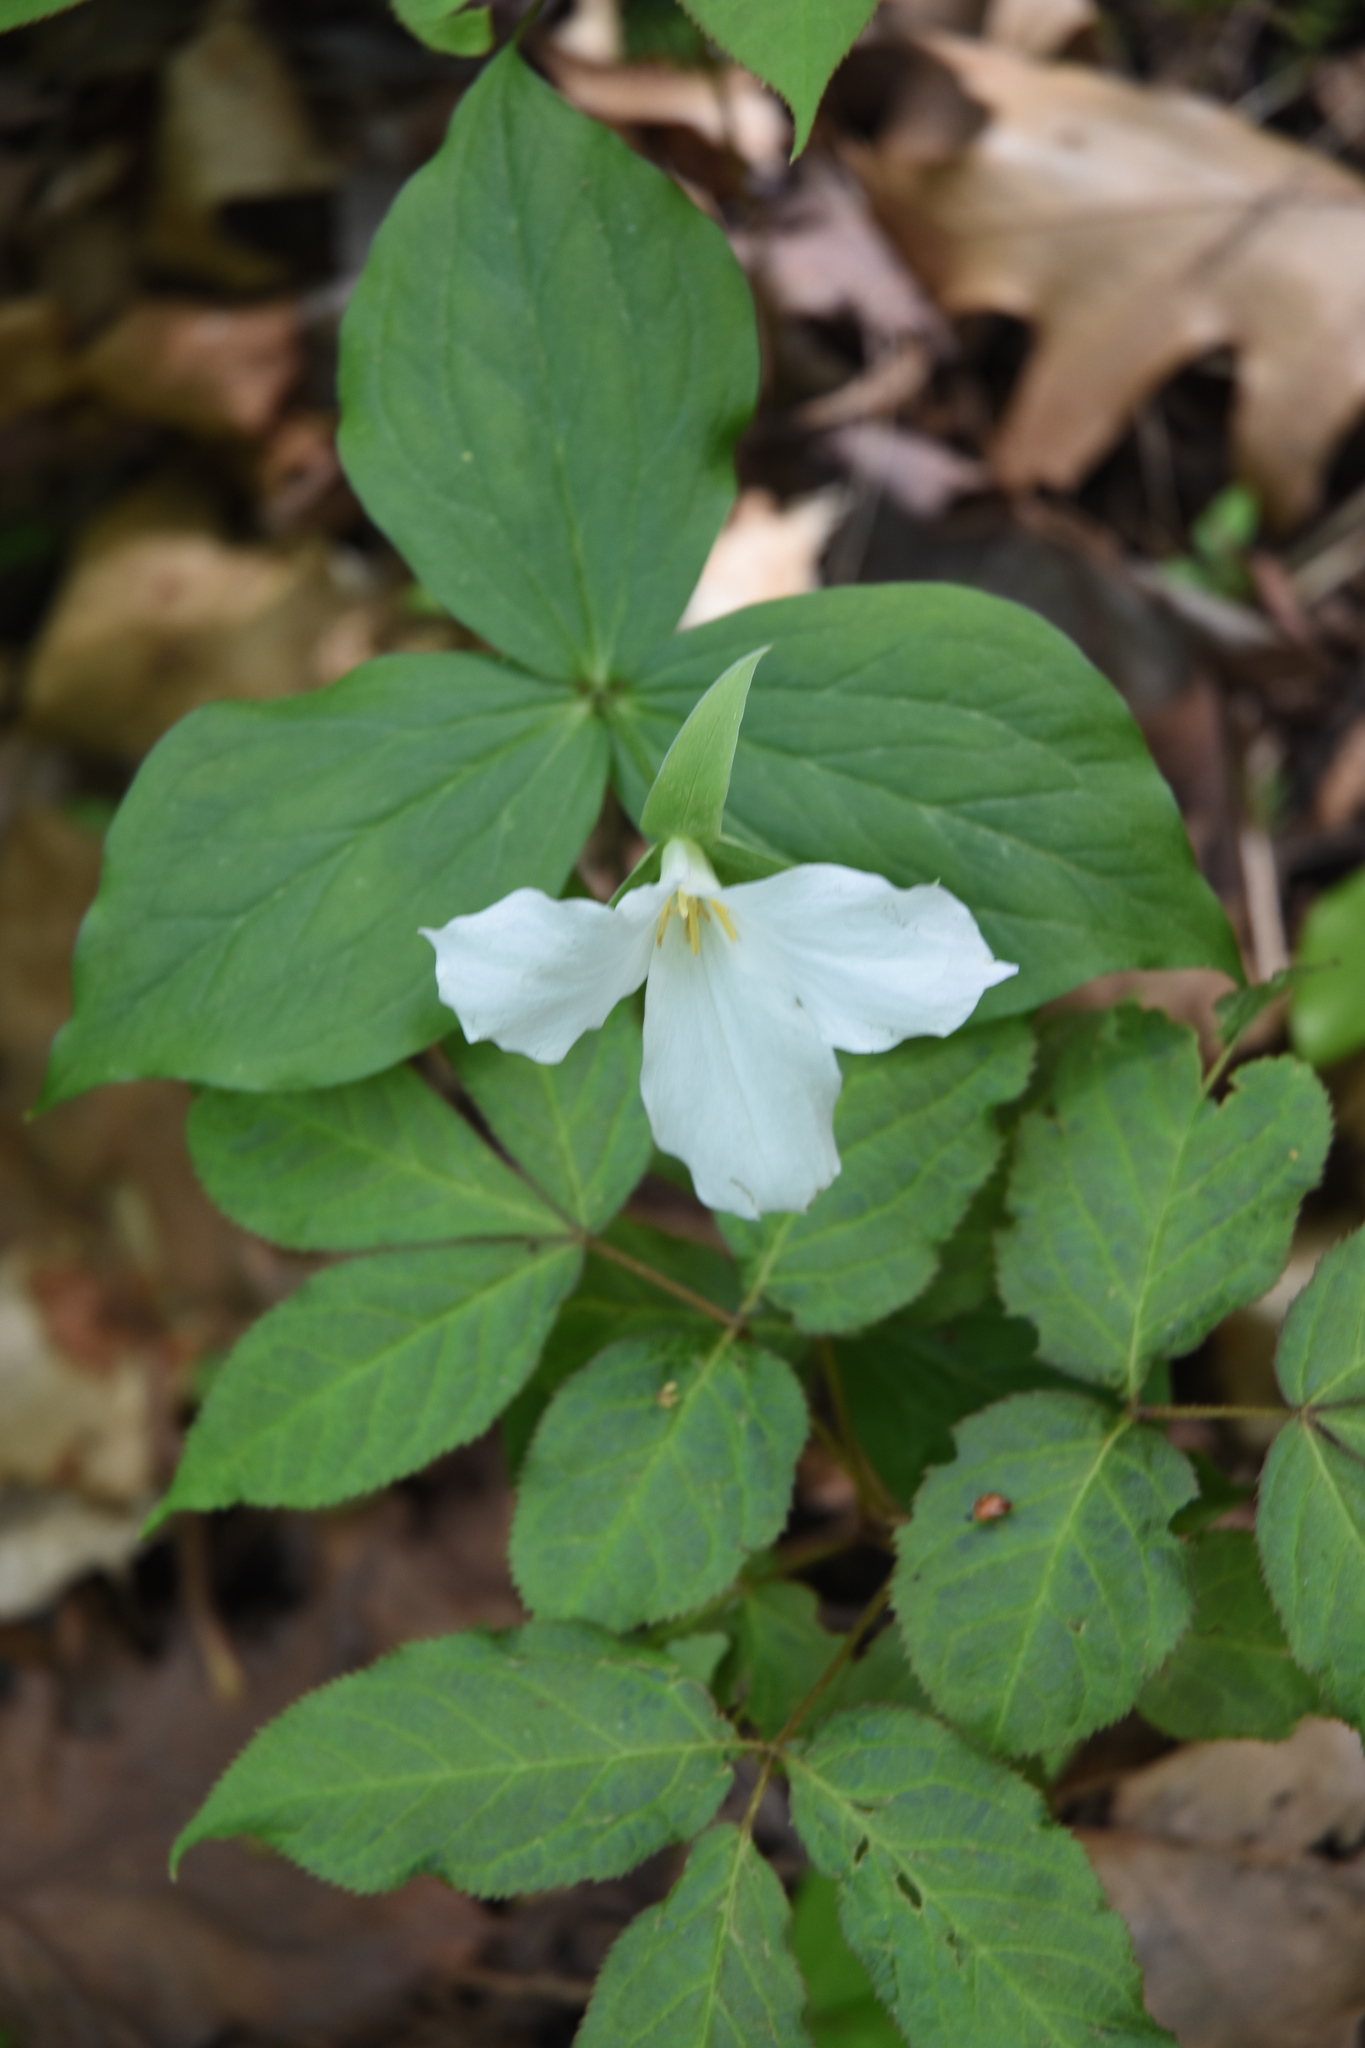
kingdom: Plantae
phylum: Tracheophyta
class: Liliopsida
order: Liliales
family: Melanthiaceae
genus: Trillium
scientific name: Trillium grandiflorum
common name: Great white trillium
